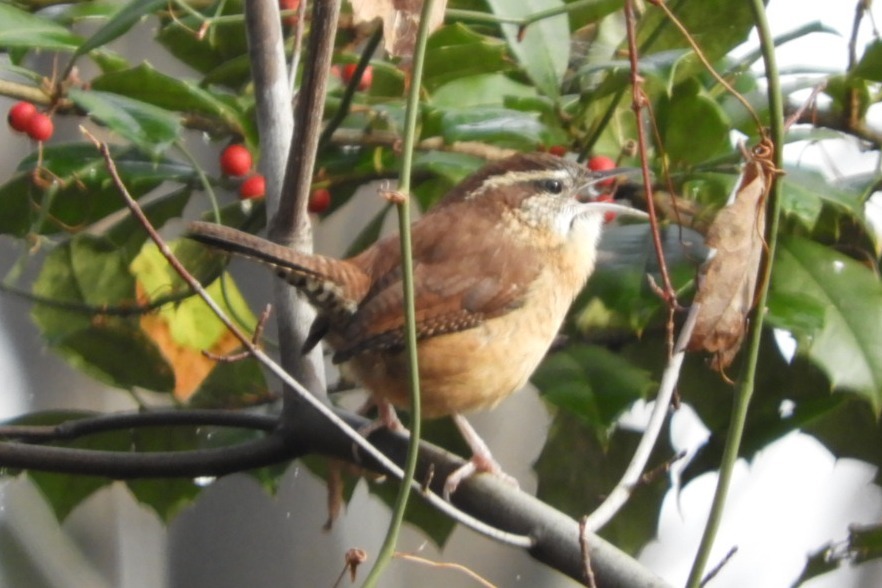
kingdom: Animalia
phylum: Chordata
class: Aves
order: Passeriformes
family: Troglodytidae
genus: Thryothorus
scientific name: Thryothorus ludovicianus
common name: Carolina wren
